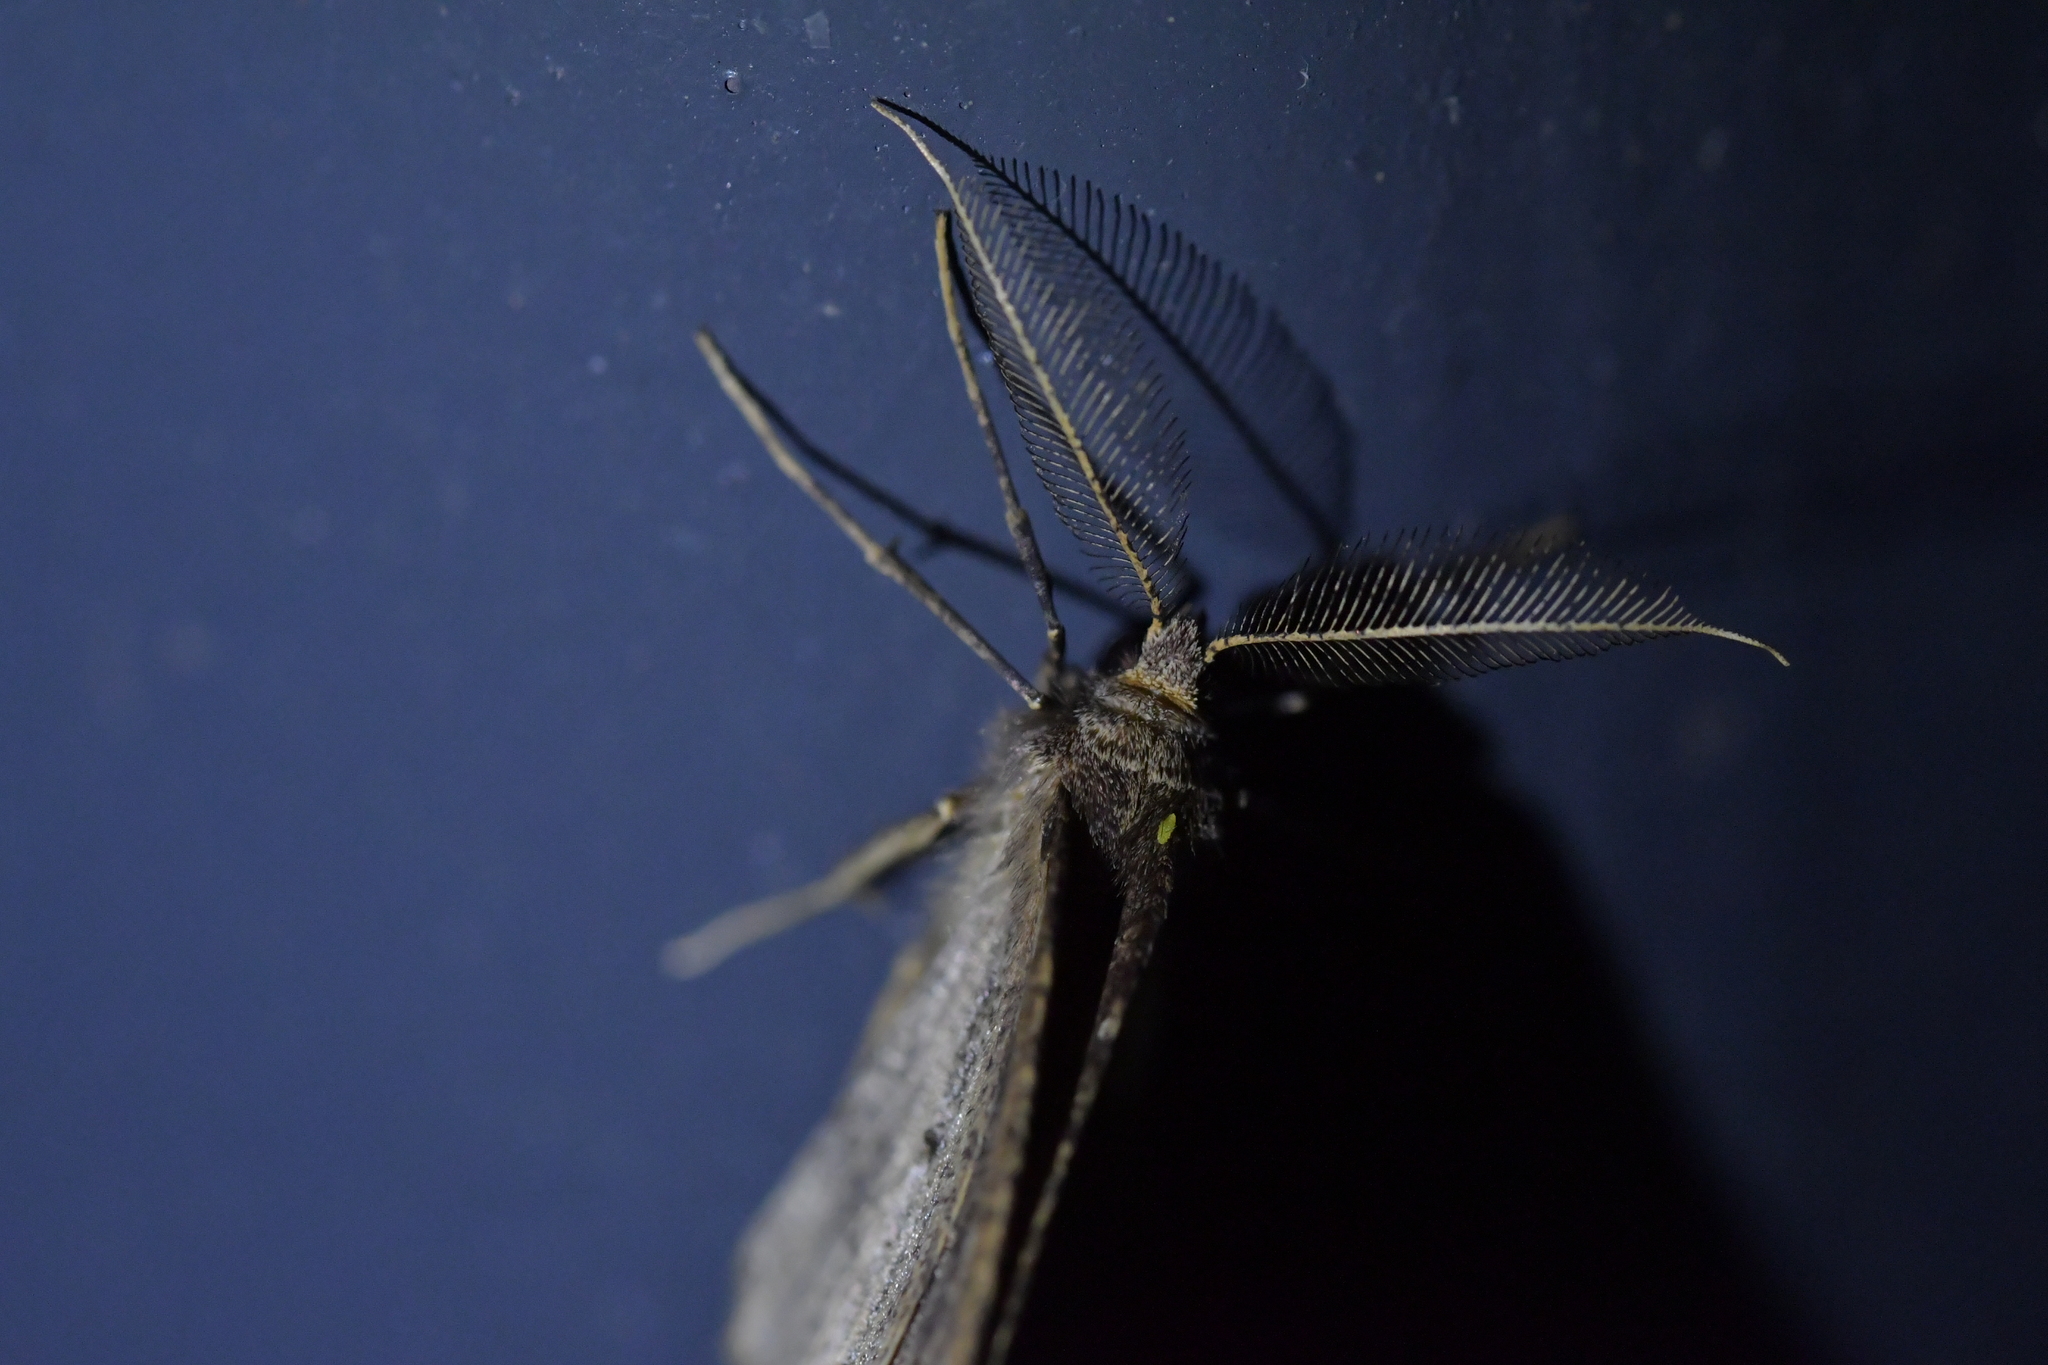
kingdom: Animalia
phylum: Arthropoda
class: Insecta
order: Lepidoptera
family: Geometridae
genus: Cleora
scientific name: Cleora scriptaria
